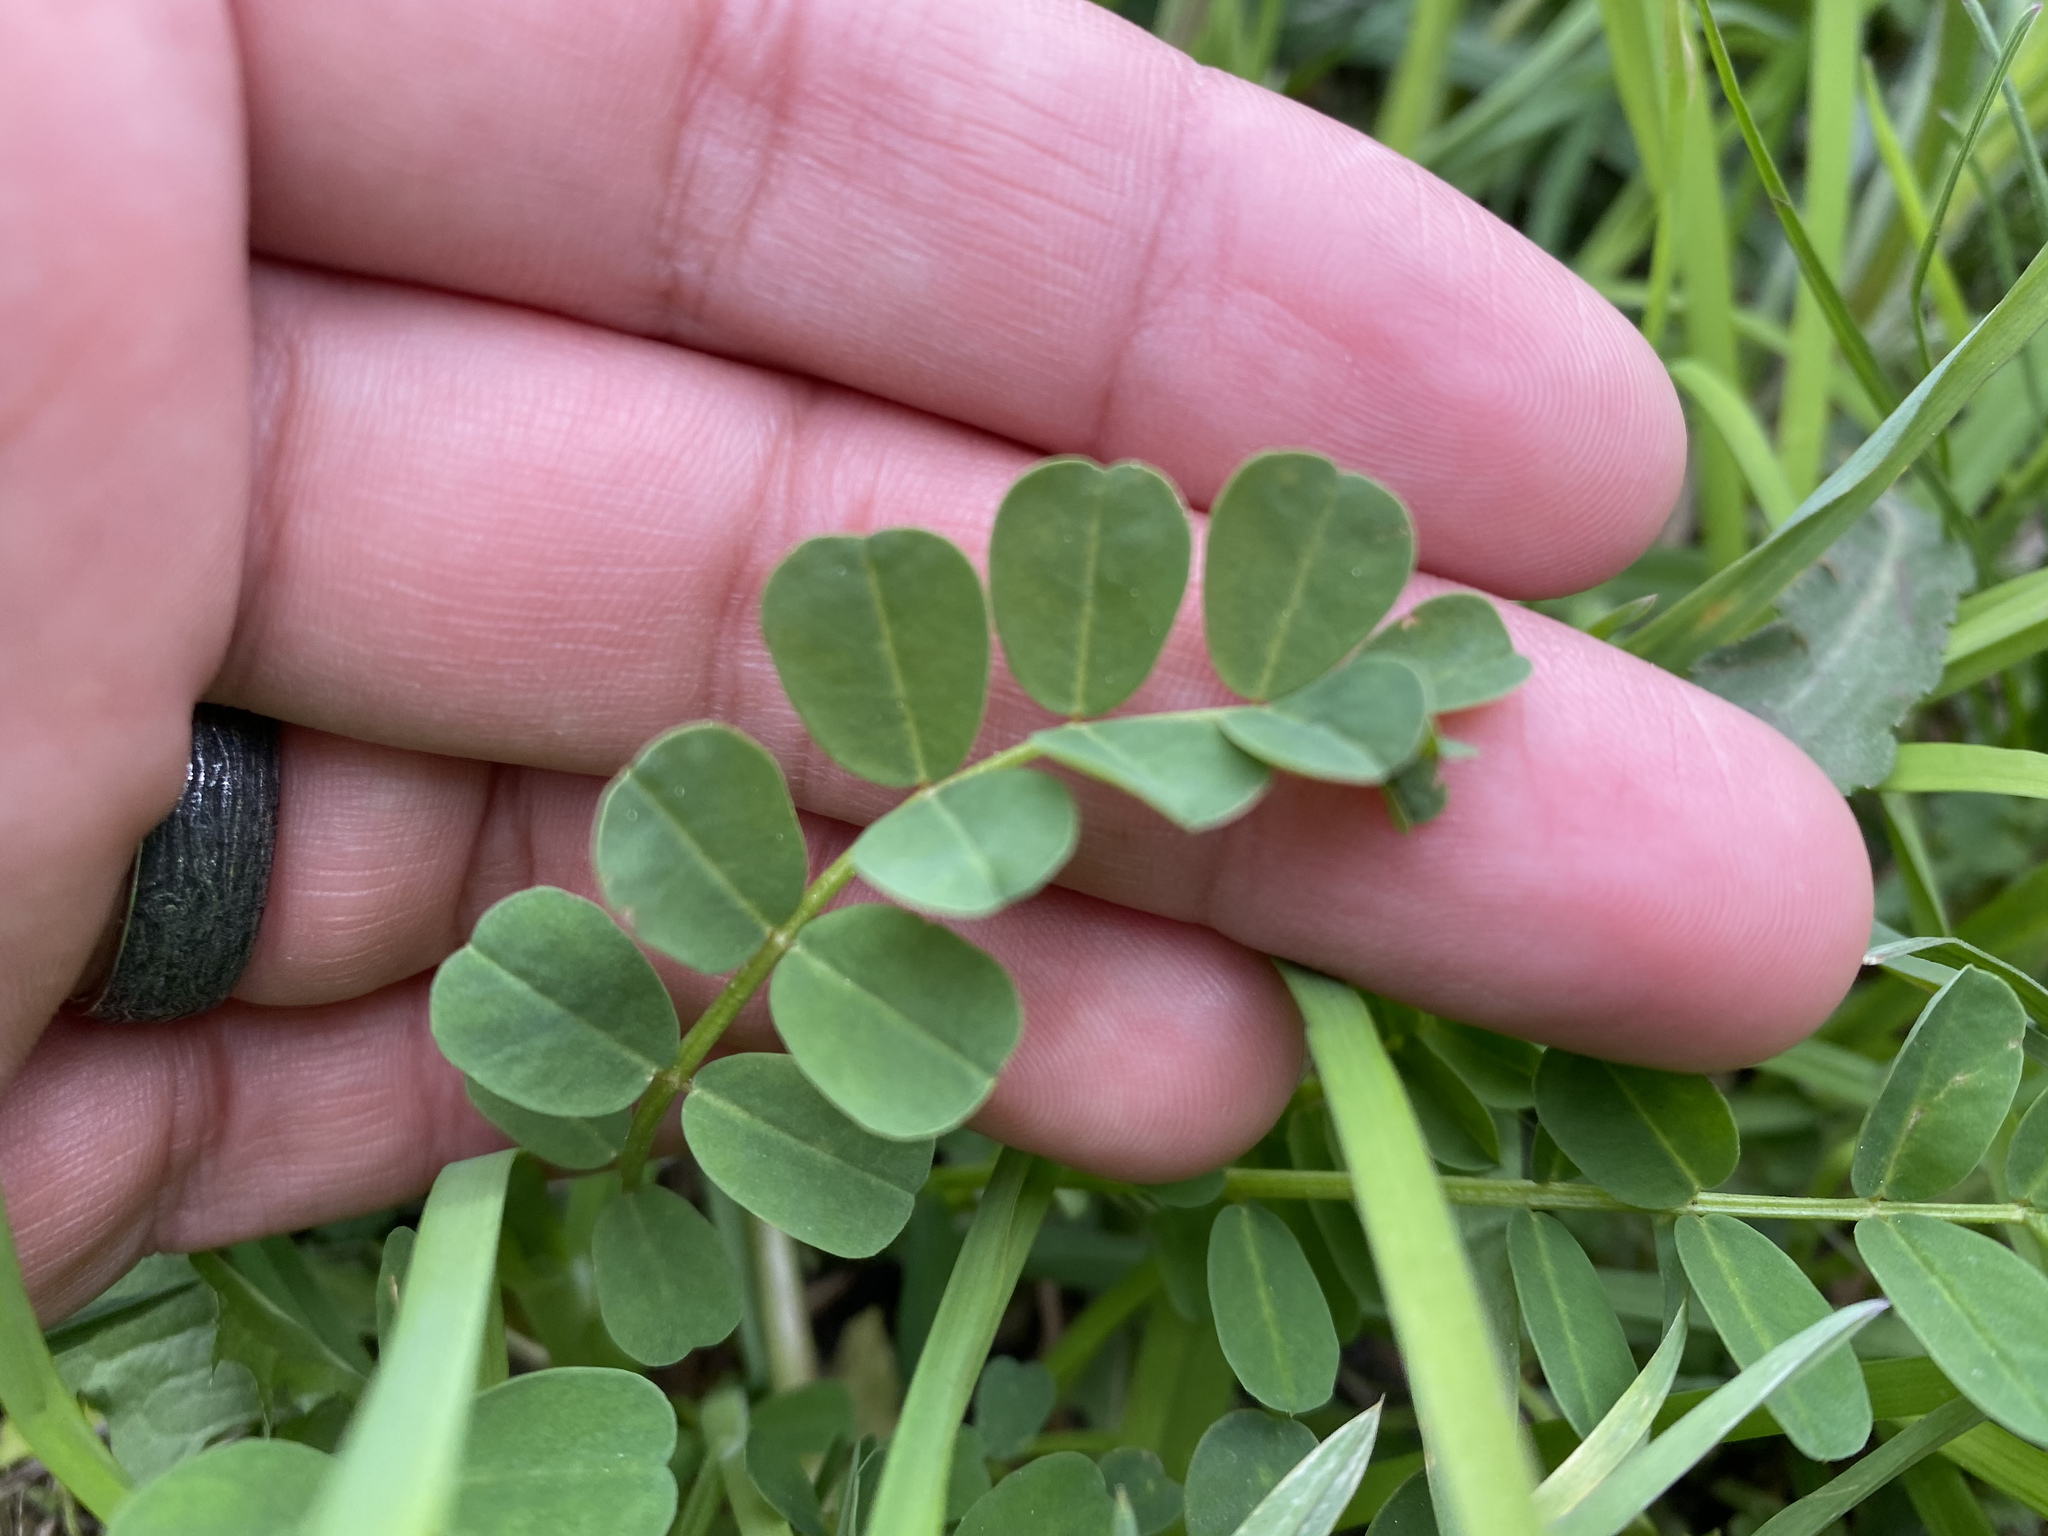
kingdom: Plantae
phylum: Tracheophyta
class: Magnoliopsida
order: Fabales
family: Fabaceae
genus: Coronilla
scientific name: Coronilla varia
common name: Crownvetch
